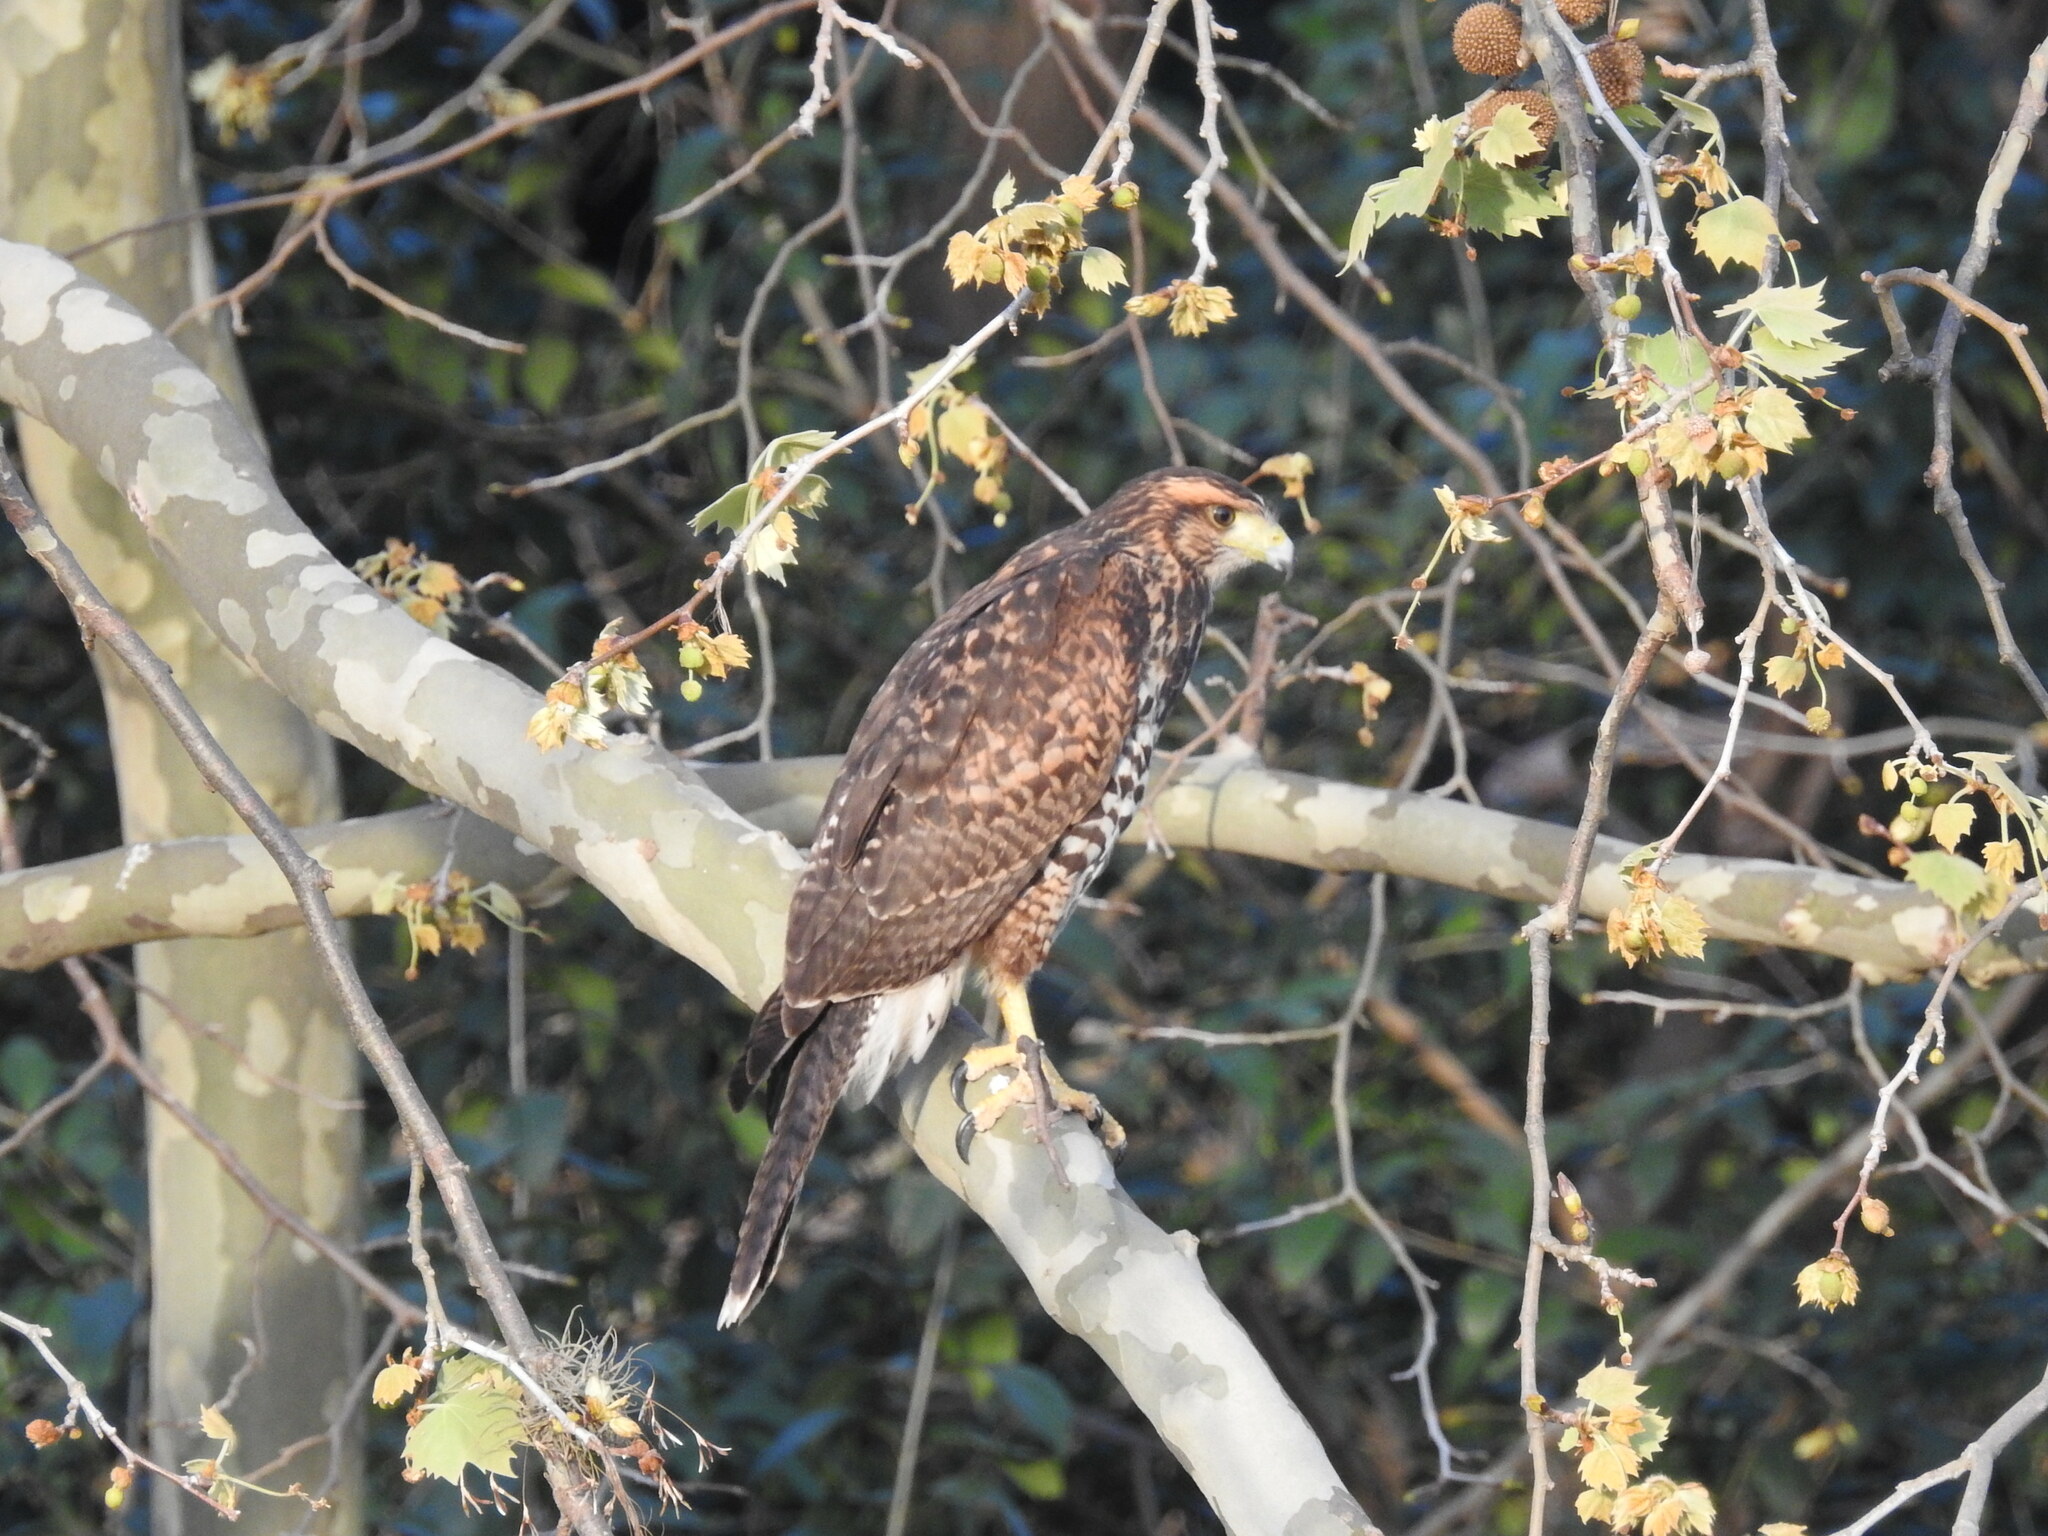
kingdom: Animalia
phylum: Chordata
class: Aves
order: Accipitriformes
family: Accipitridae
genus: Parabuteo
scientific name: Parabuteo unicinctus
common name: Harris's hawk
